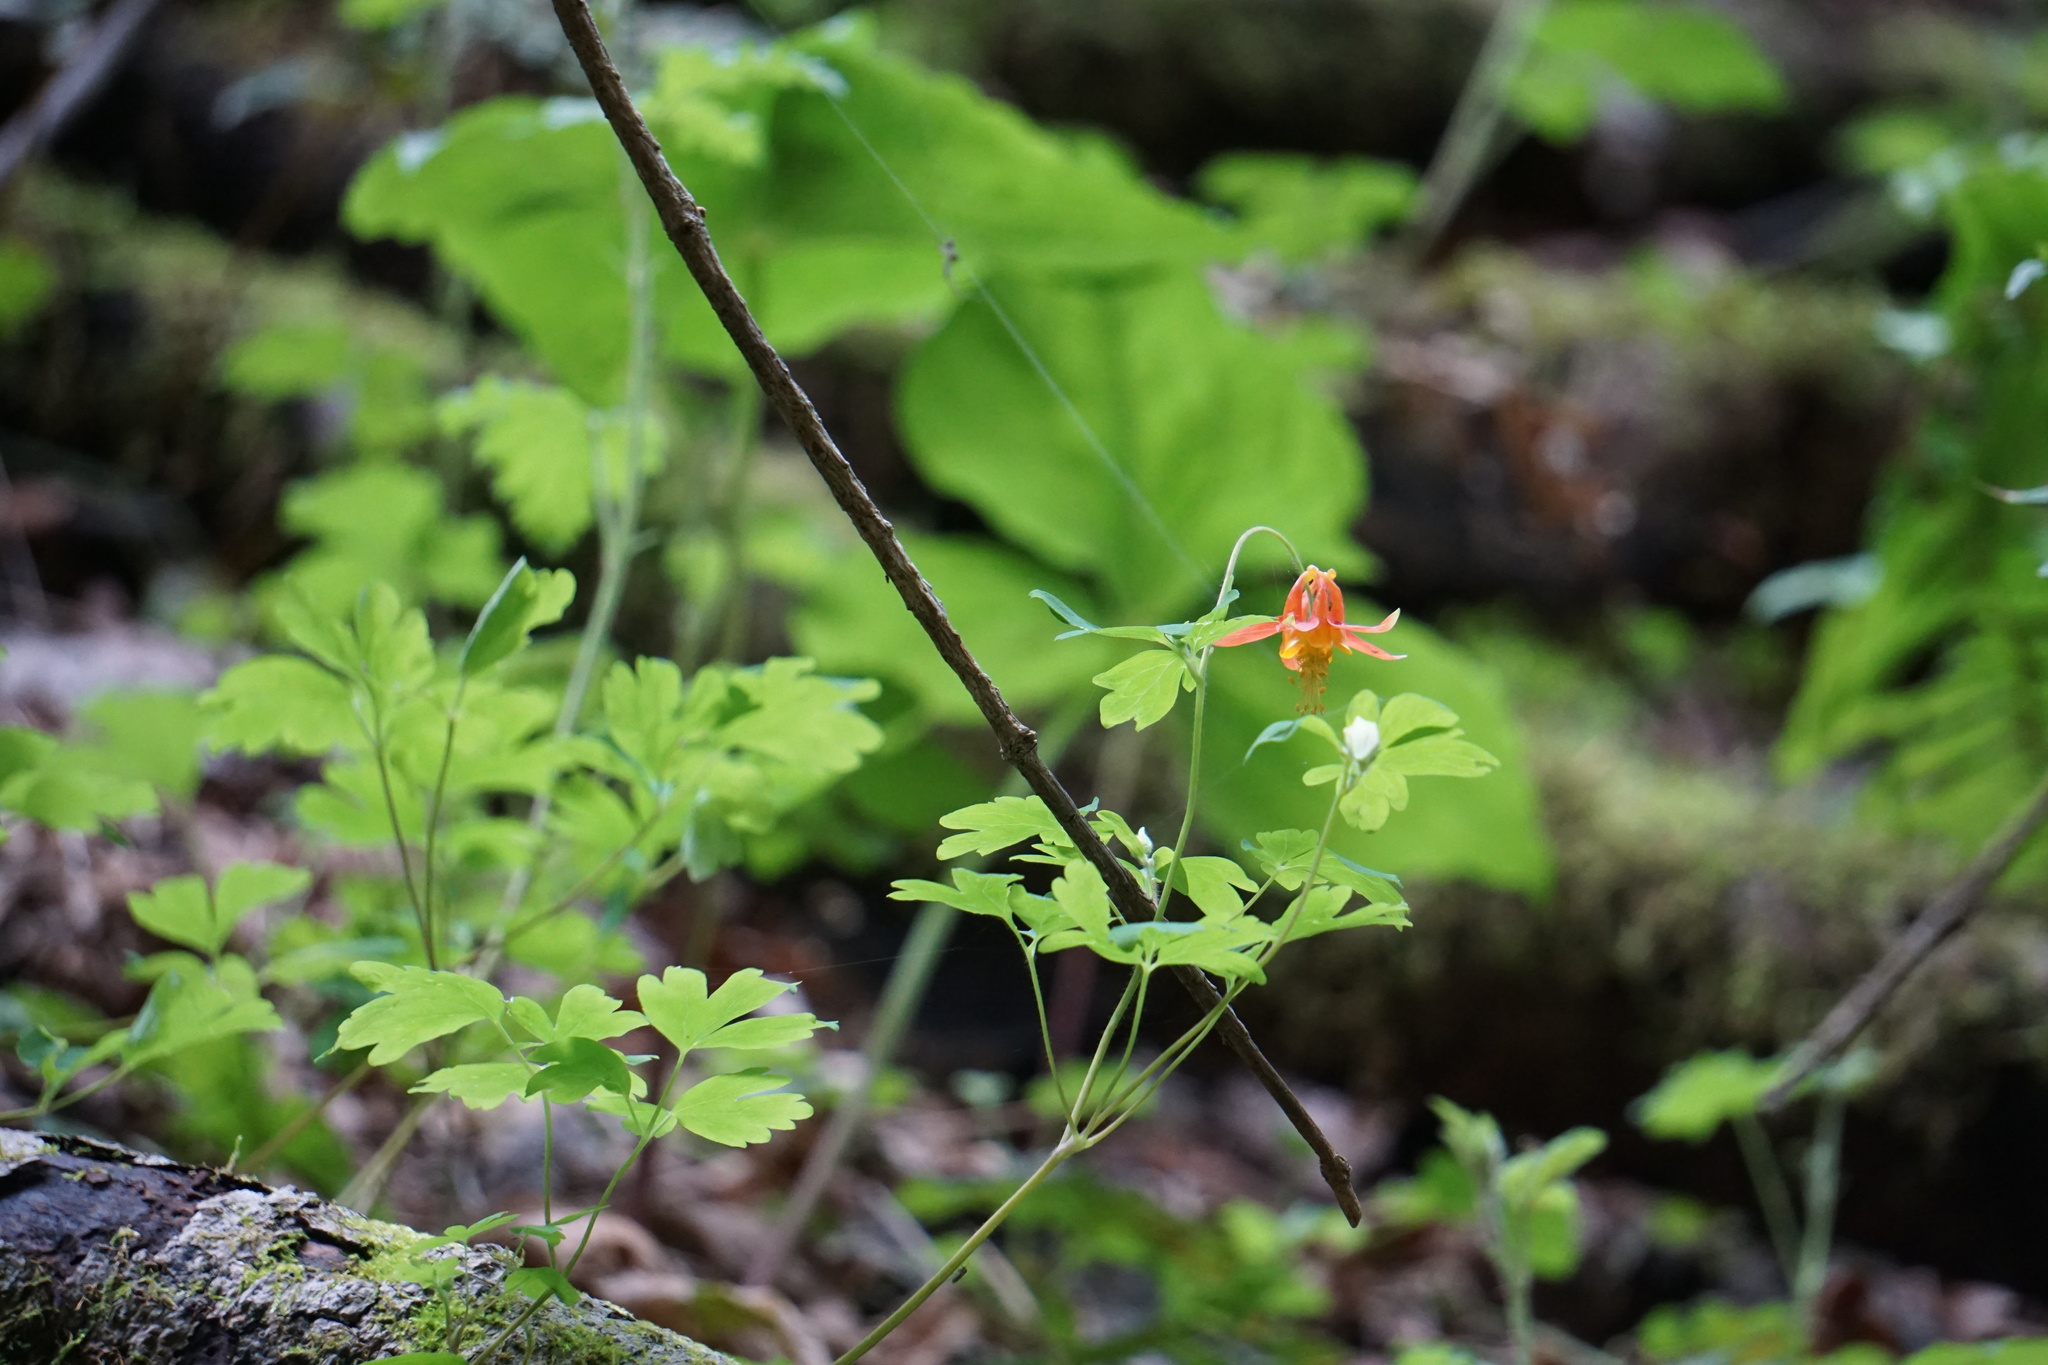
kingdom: Plantae
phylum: Tracheophyta
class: Magnoliopsida
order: Ranunculales
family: Ranunculaceae
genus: Aquilegia
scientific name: Aquilegia formosa
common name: Sitka columbine
